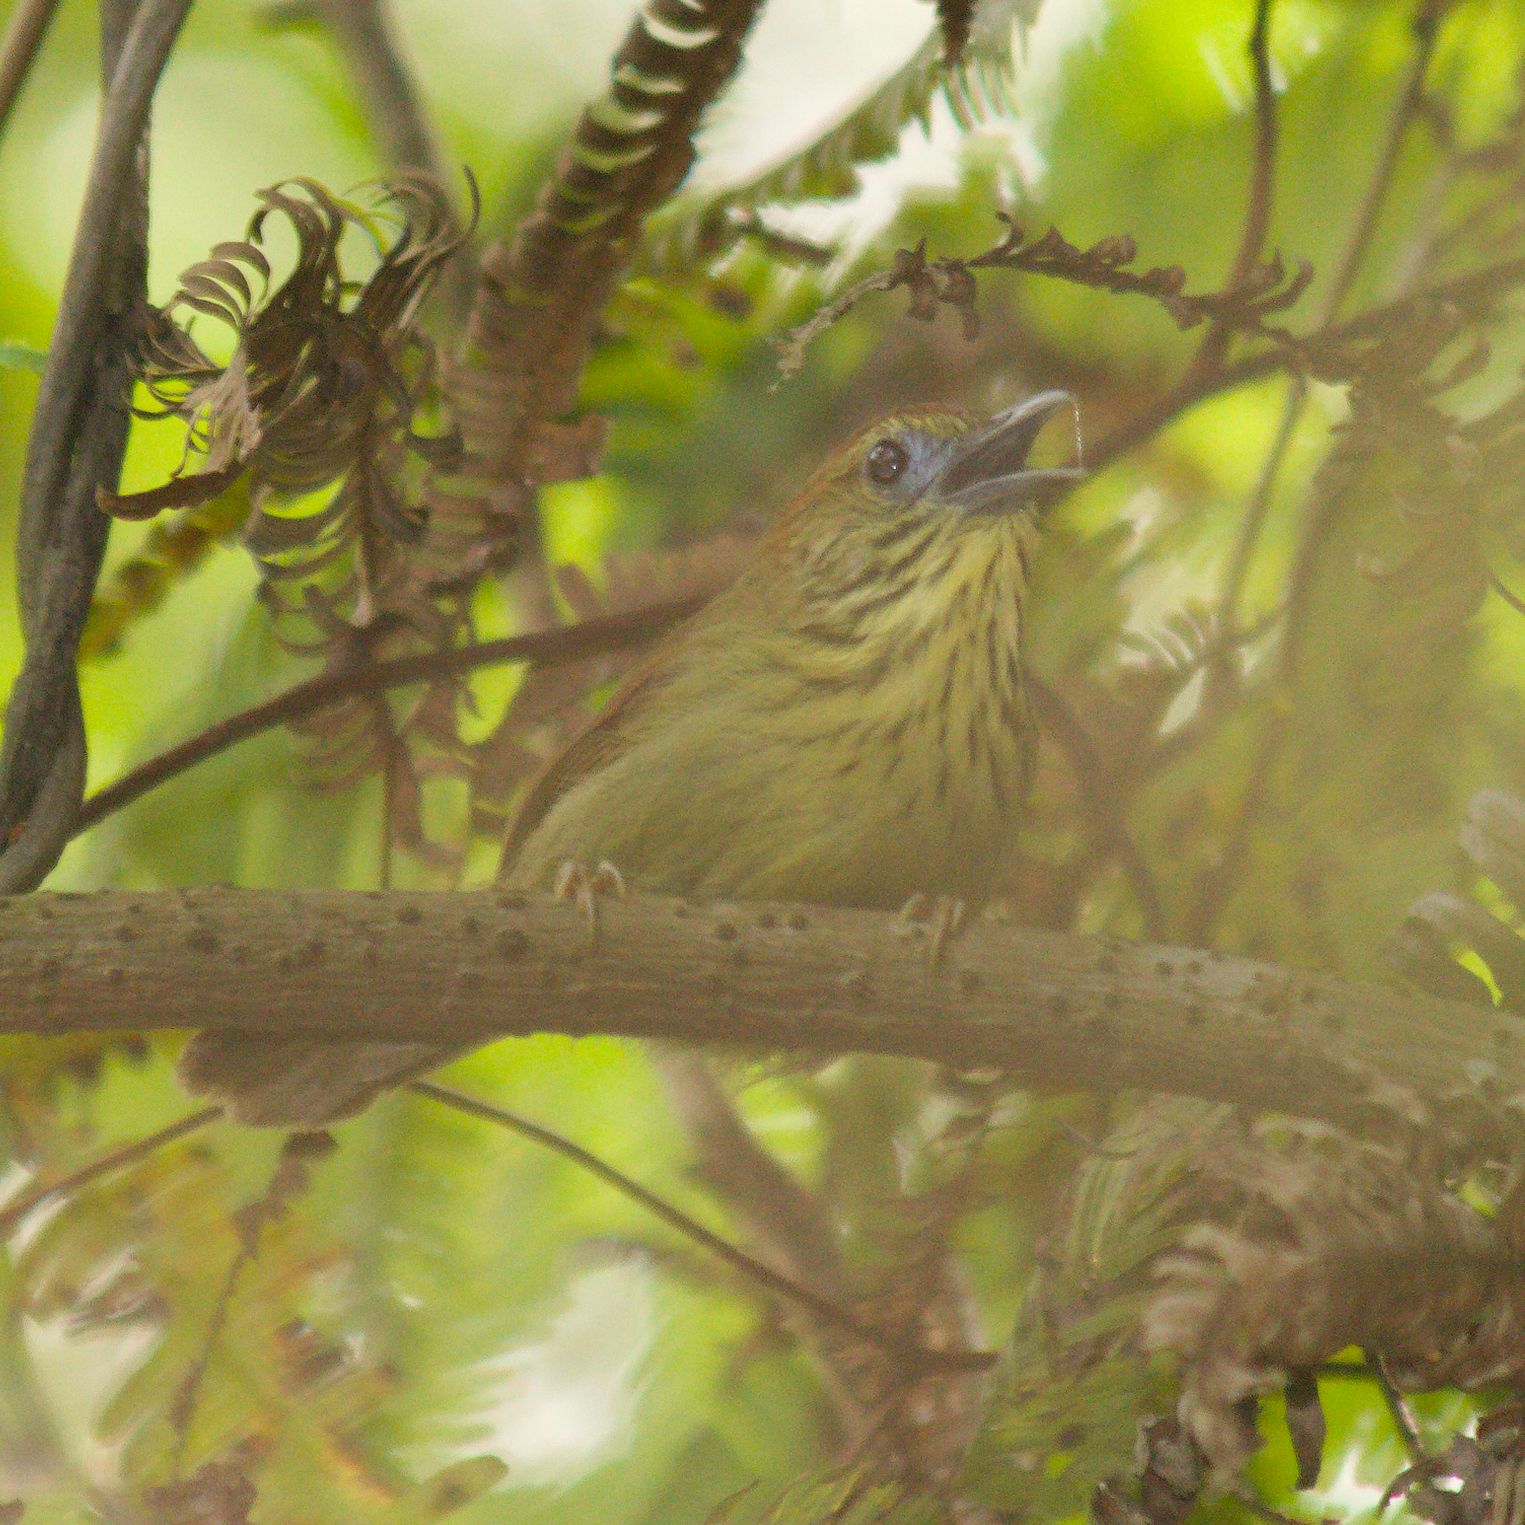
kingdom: Animalia
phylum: Chordata
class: Aves
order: Passeriformes
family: Timaliidae
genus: Macronus
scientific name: Macronus gularis
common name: Striped tit-babbler
